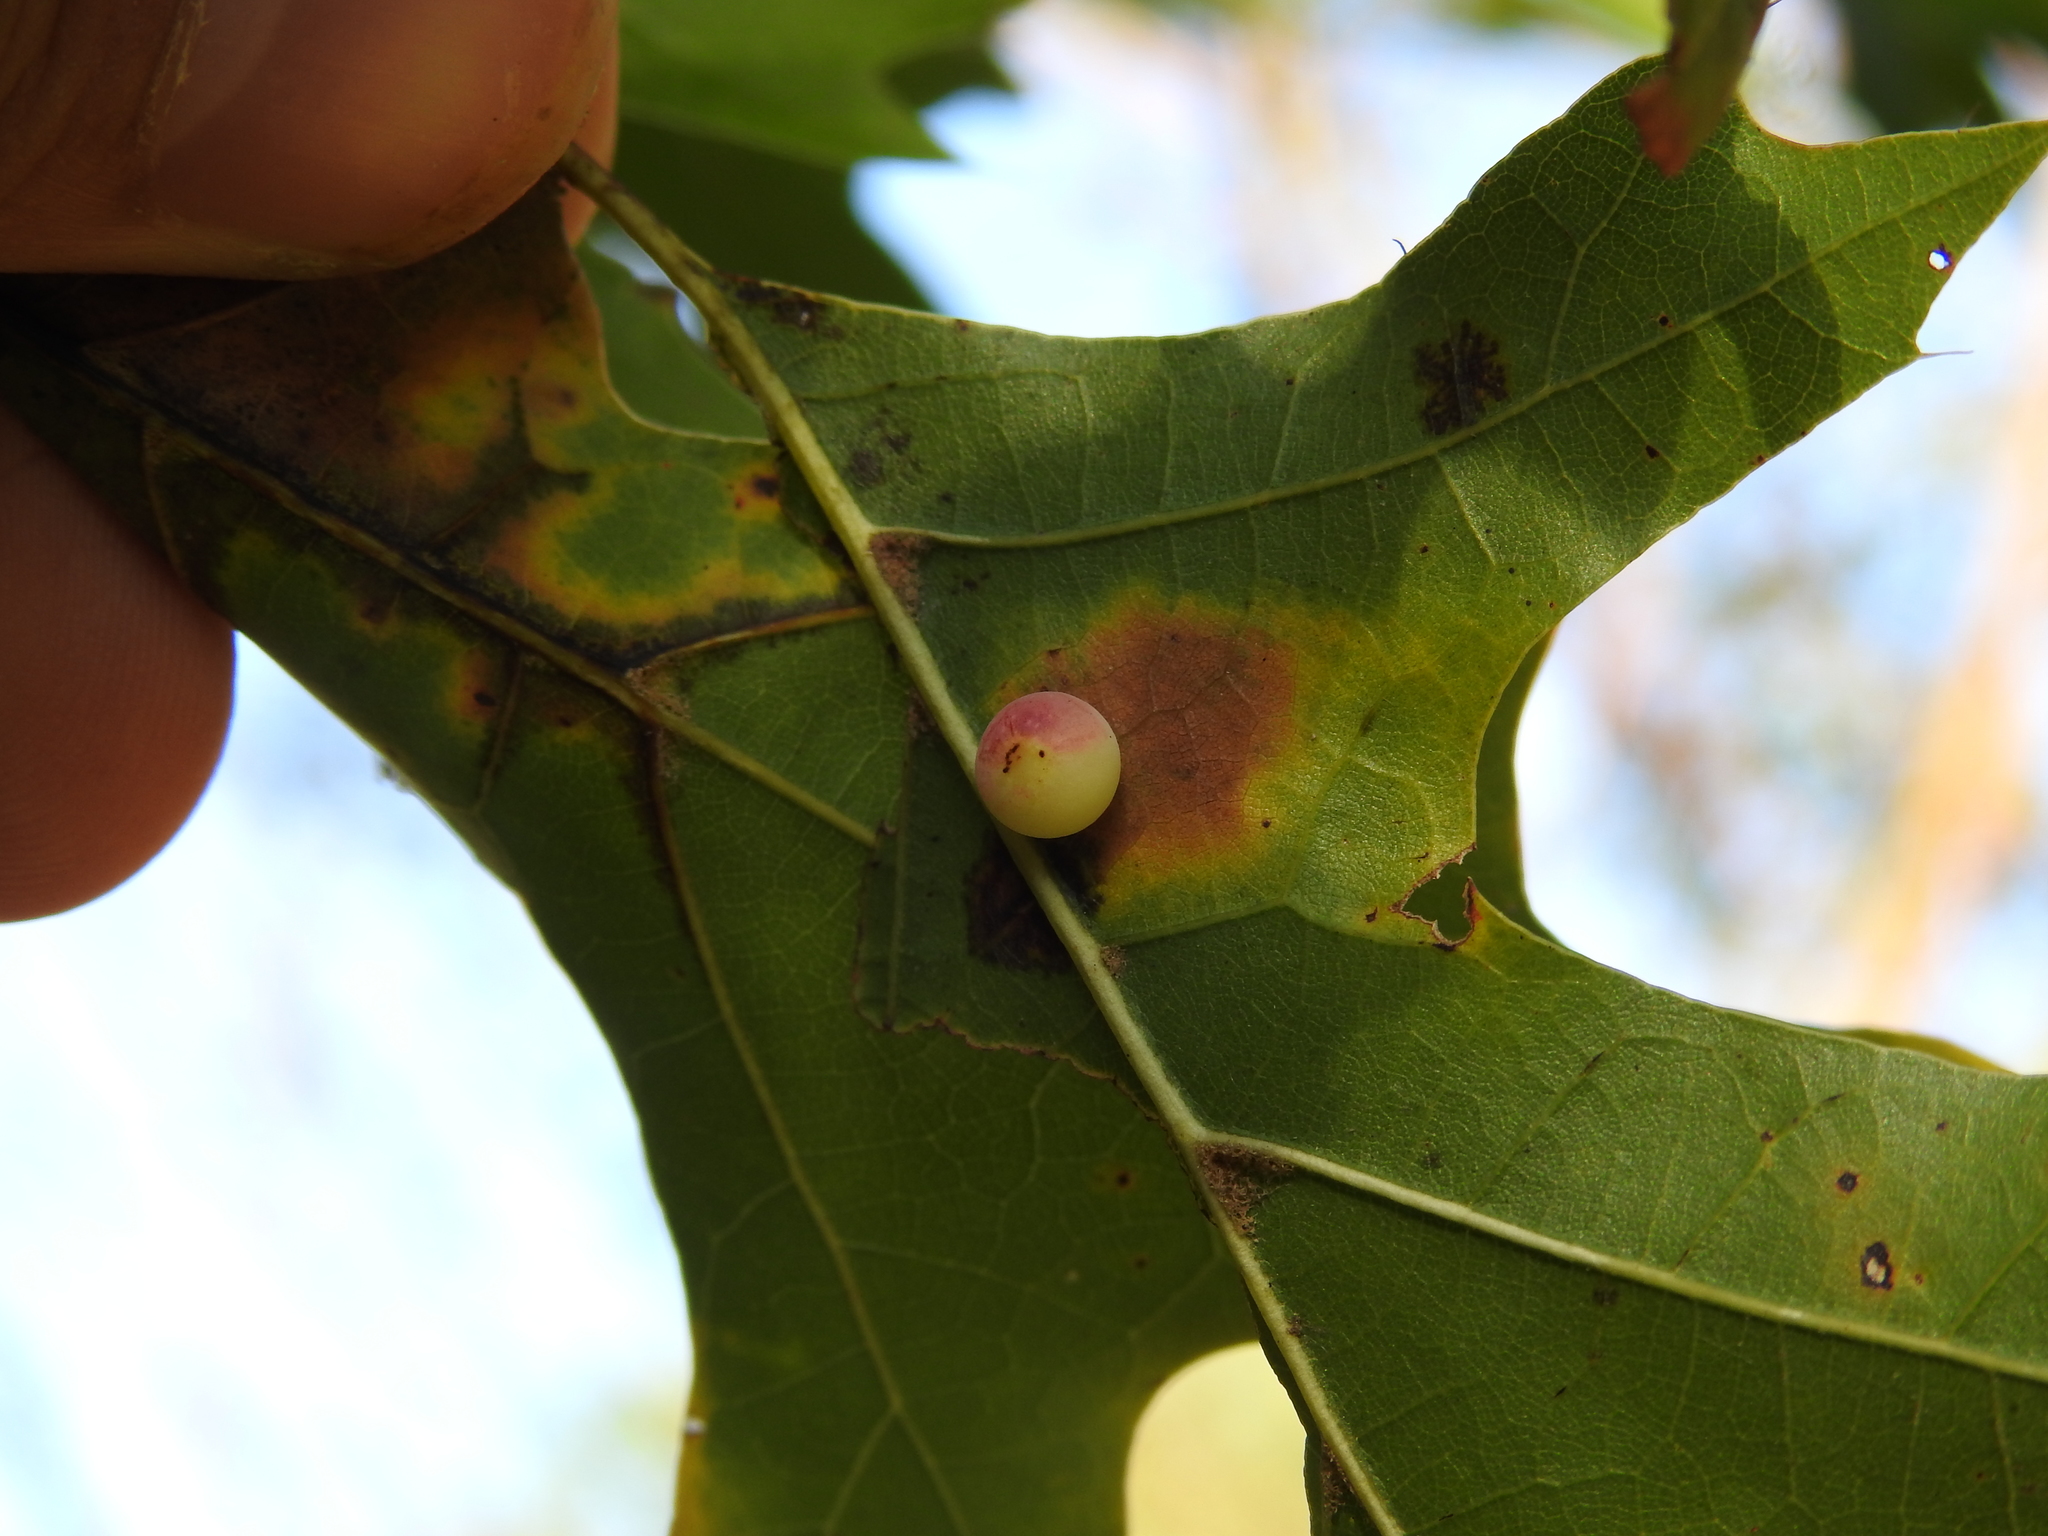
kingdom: Animalia
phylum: Arthropoda
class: Insecta
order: Hymenoptera
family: Cynipidae
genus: Zopheroteras
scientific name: Zopheroteras
